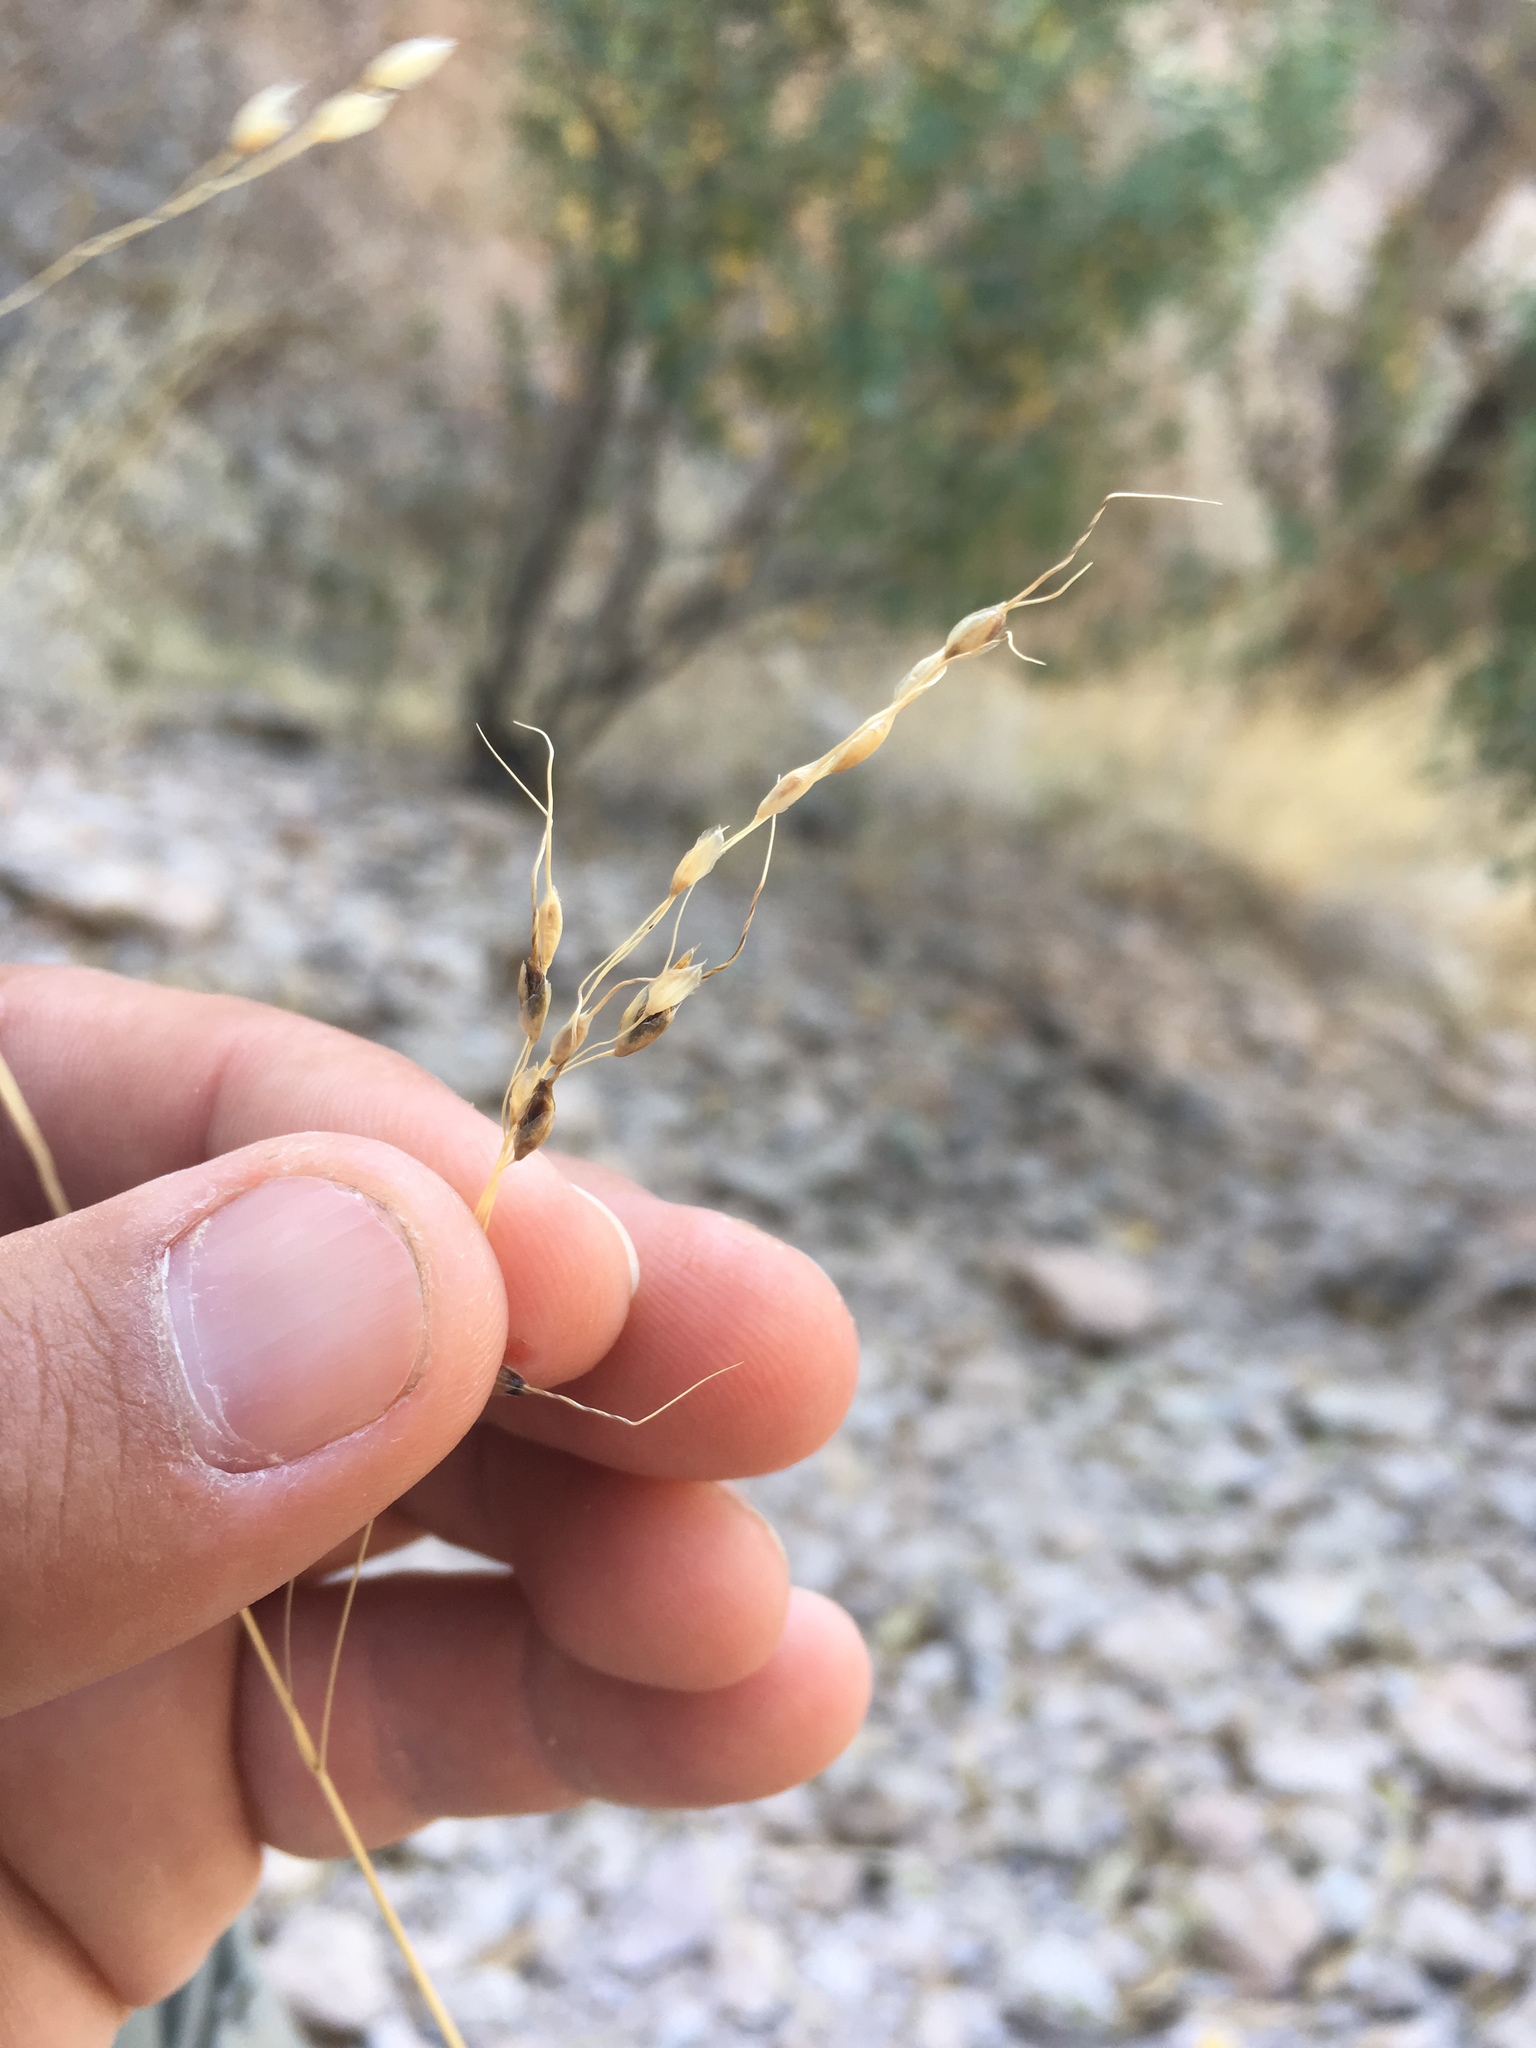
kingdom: Plantae
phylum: Tracheophyta
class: Liliopsida
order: Poales
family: Poaceae
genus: Piptochaetium
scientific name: Piptochaetium fimbriatum
